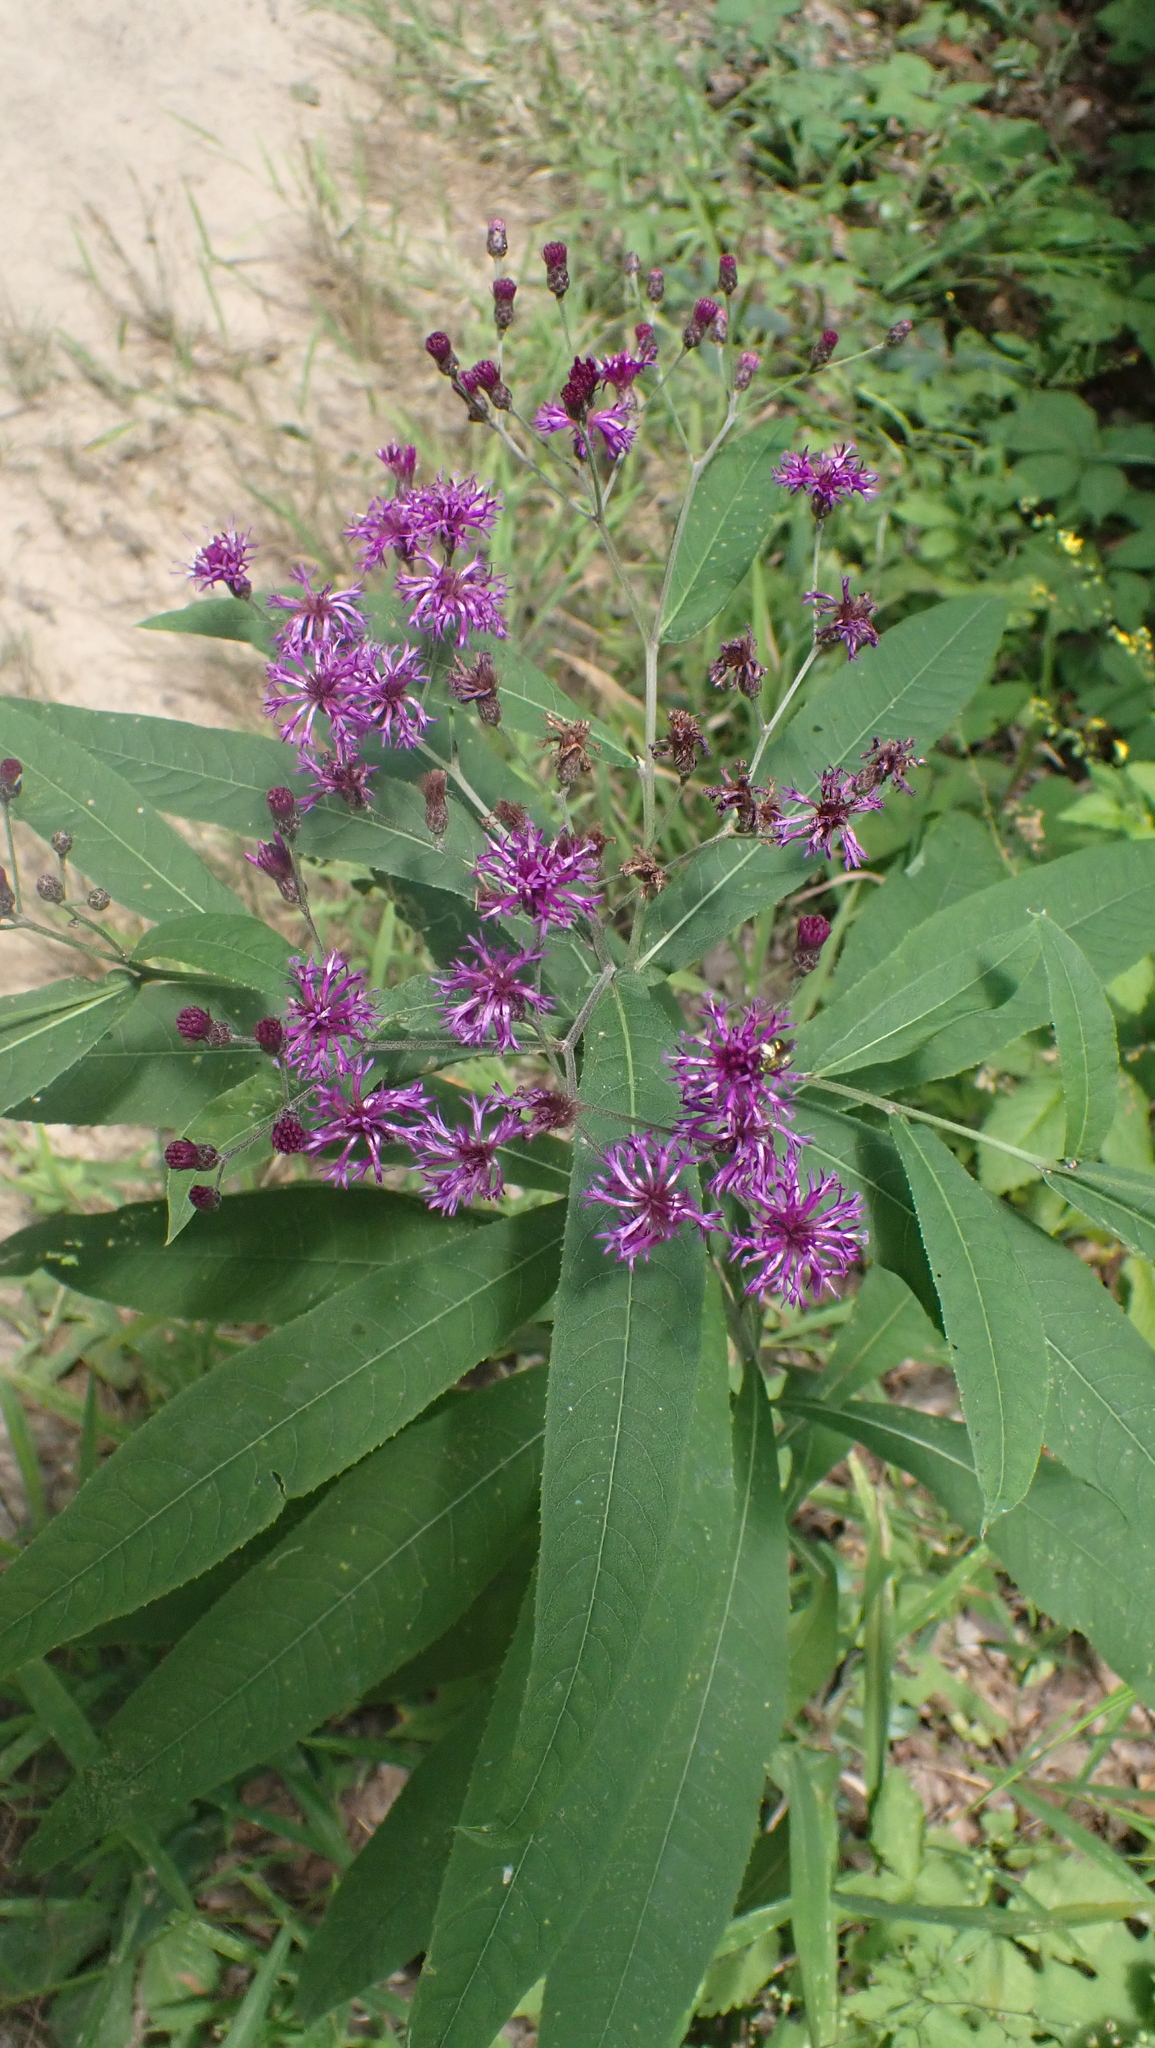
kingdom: Plantae
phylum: Tracheophyta
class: Magnoliopsida
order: Asterales
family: Asteraceae
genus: Vernonia
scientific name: Vernonia gigantea
